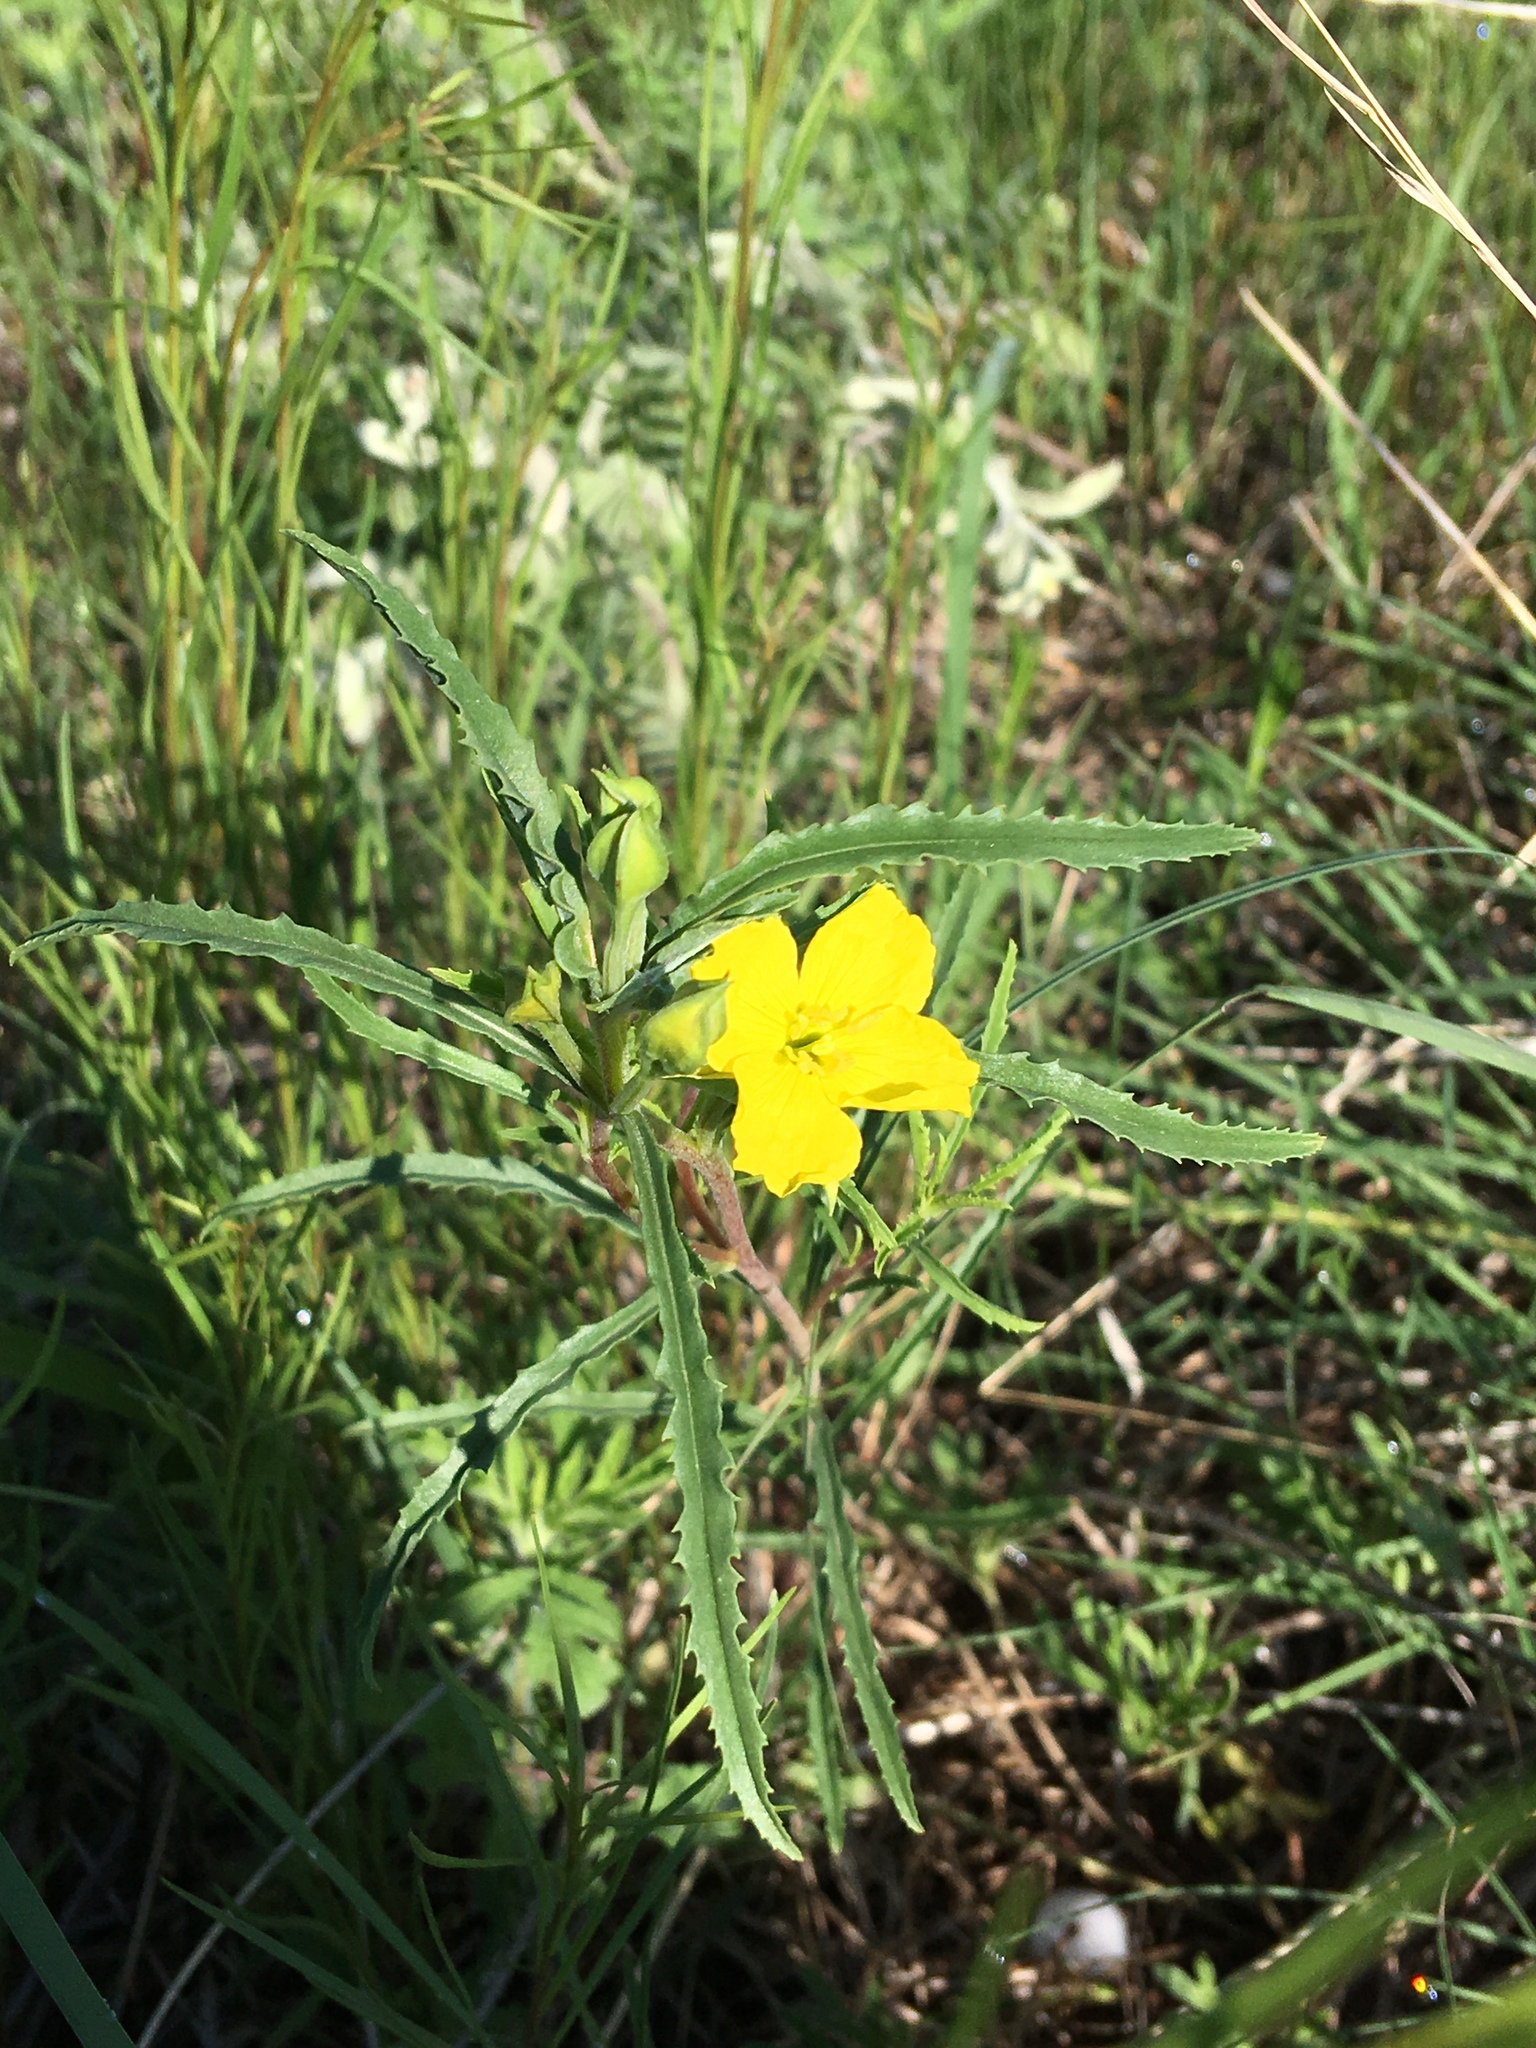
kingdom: Plantae
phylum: Tracheophyta
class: Magnoliopsida
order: Myrtales
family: Onagraceae
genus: Oenothera
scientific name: Oenothera serrulata
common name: Half-shrub calylophus
